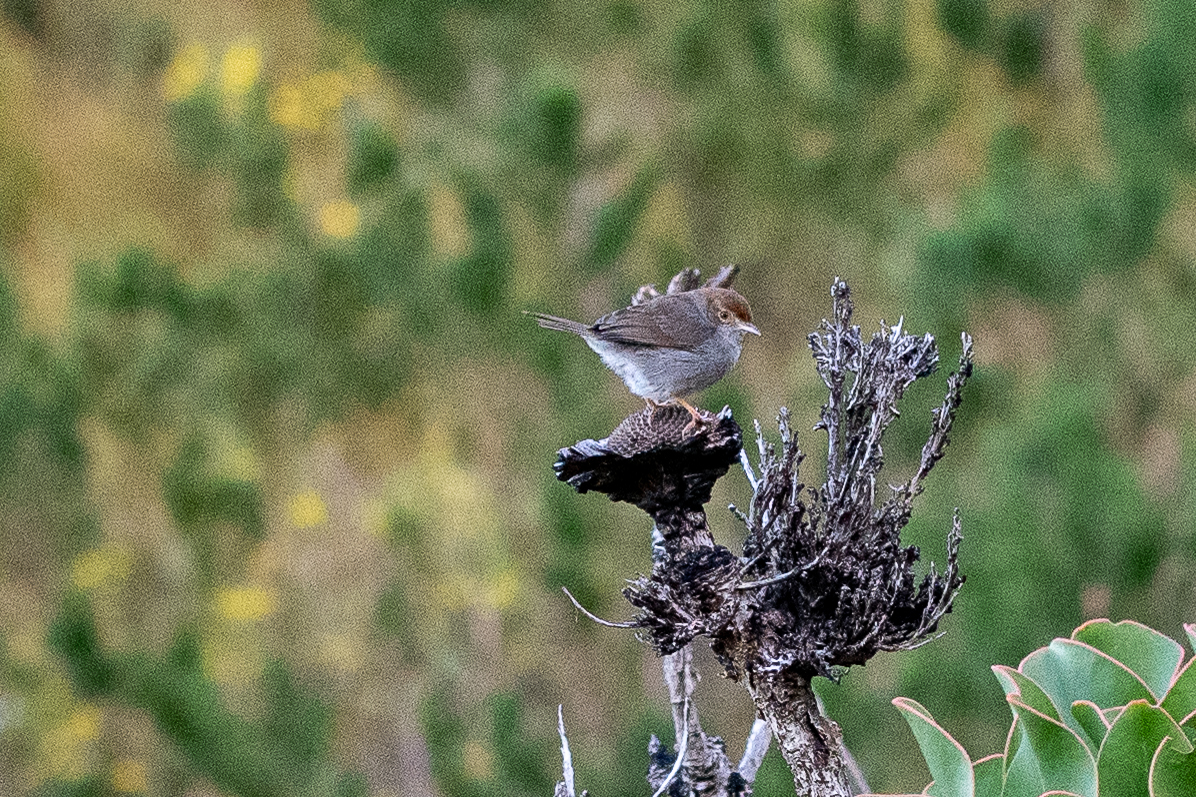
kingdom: Animalia
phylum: Chordata
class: Aves
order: Passeriformes
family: Cisticolidae
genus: Cisticola
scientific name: Cisticola fulvicapilla
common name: Neddicky
